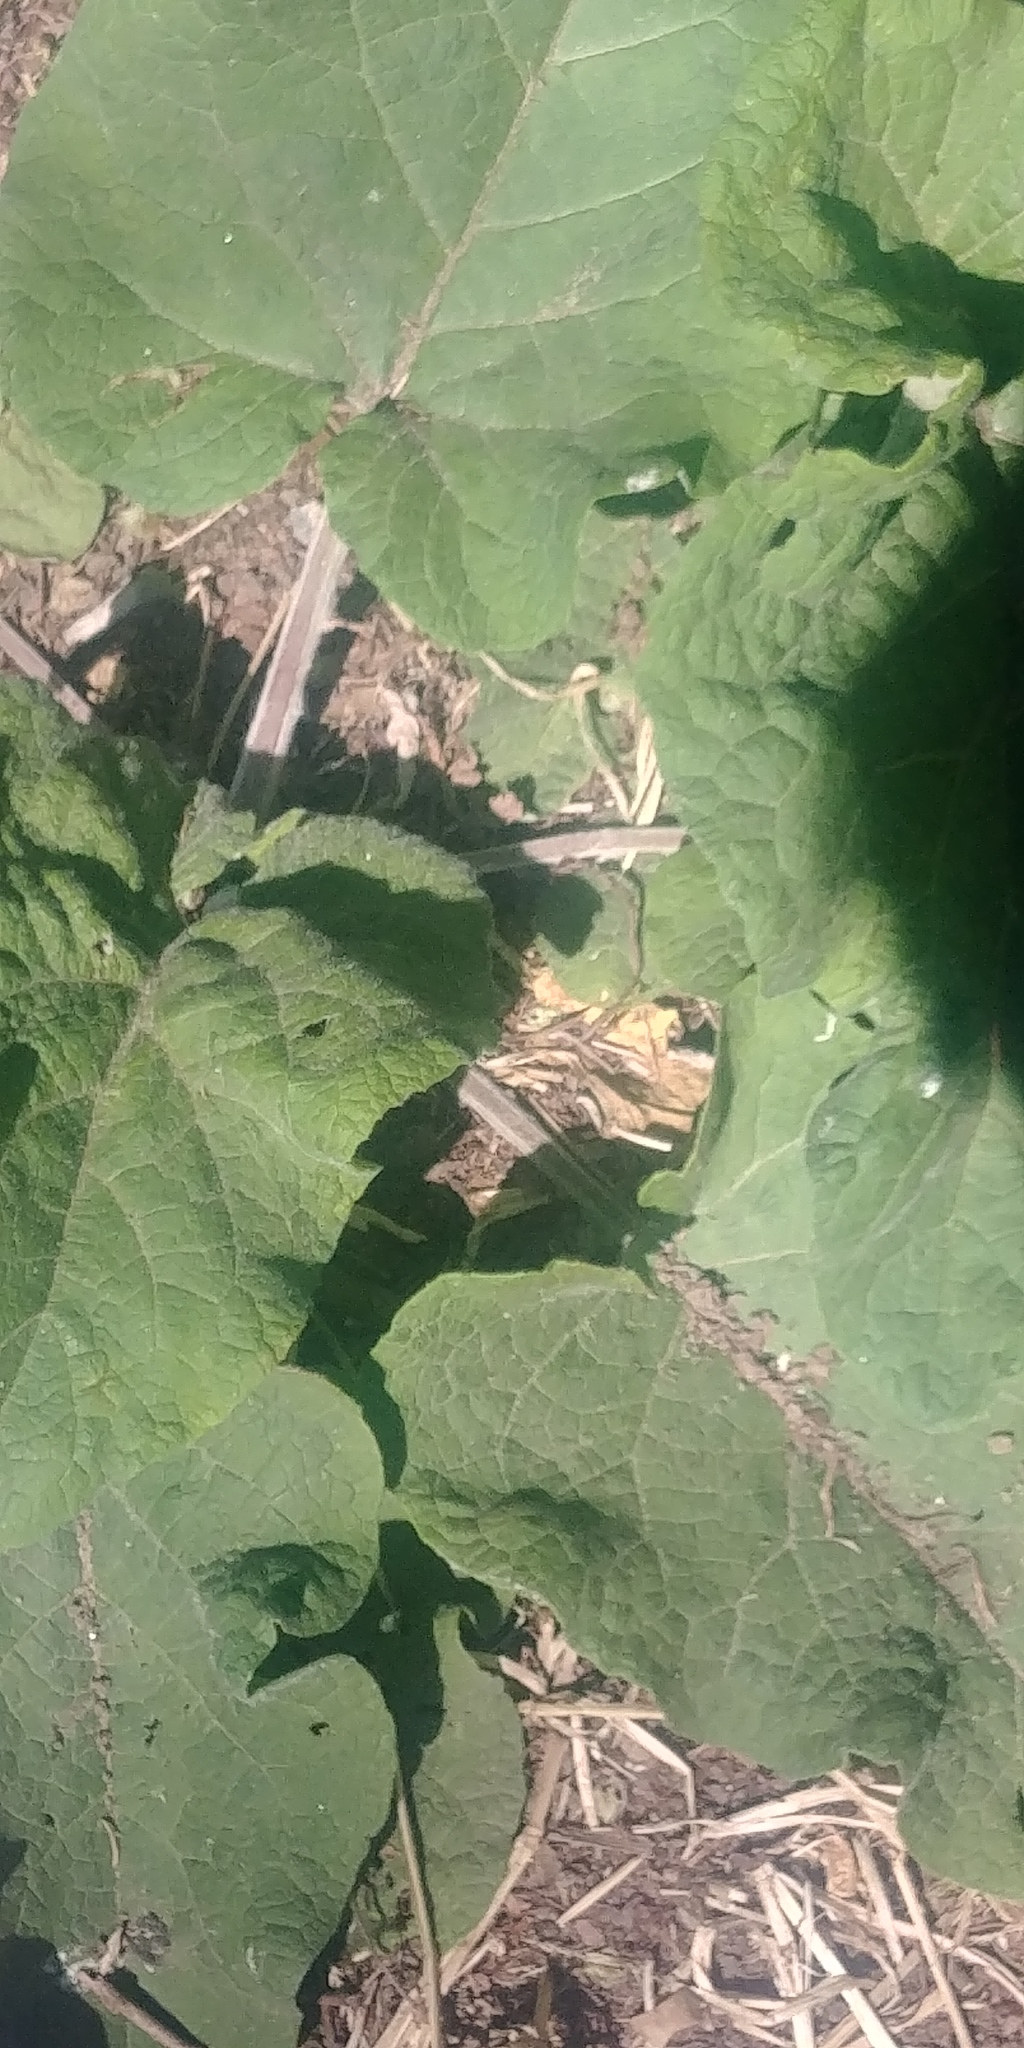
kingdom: Plantae
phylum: Tracheophyta
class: Magnoliopsida
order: Asterales
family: Asteraceae
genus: Arctium
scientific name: Arctium
